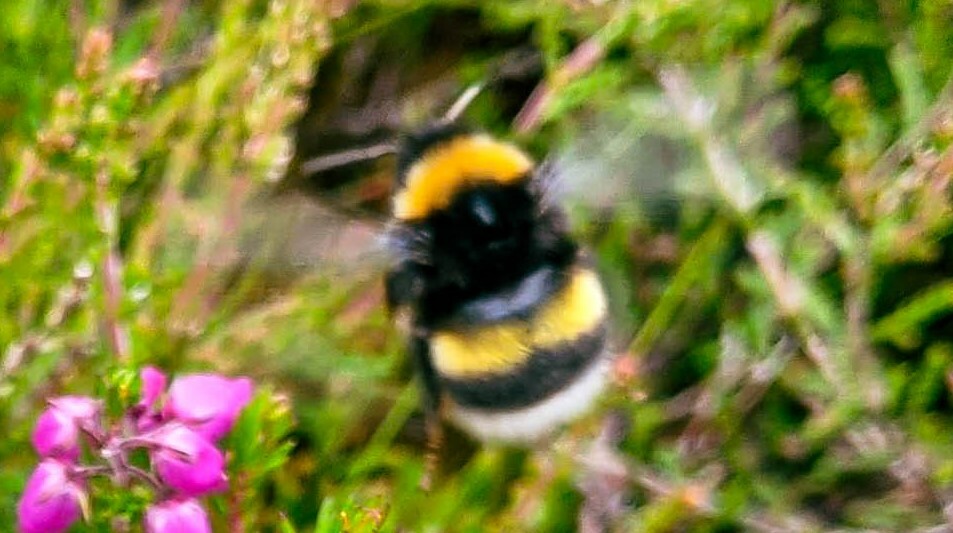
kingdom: Animalia
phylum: Arthropoda
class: Insecta
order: Hymenoptera
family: Apidae
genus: Bombus
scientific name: Bombus soroeensis
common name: Broken-belted humble-bee
